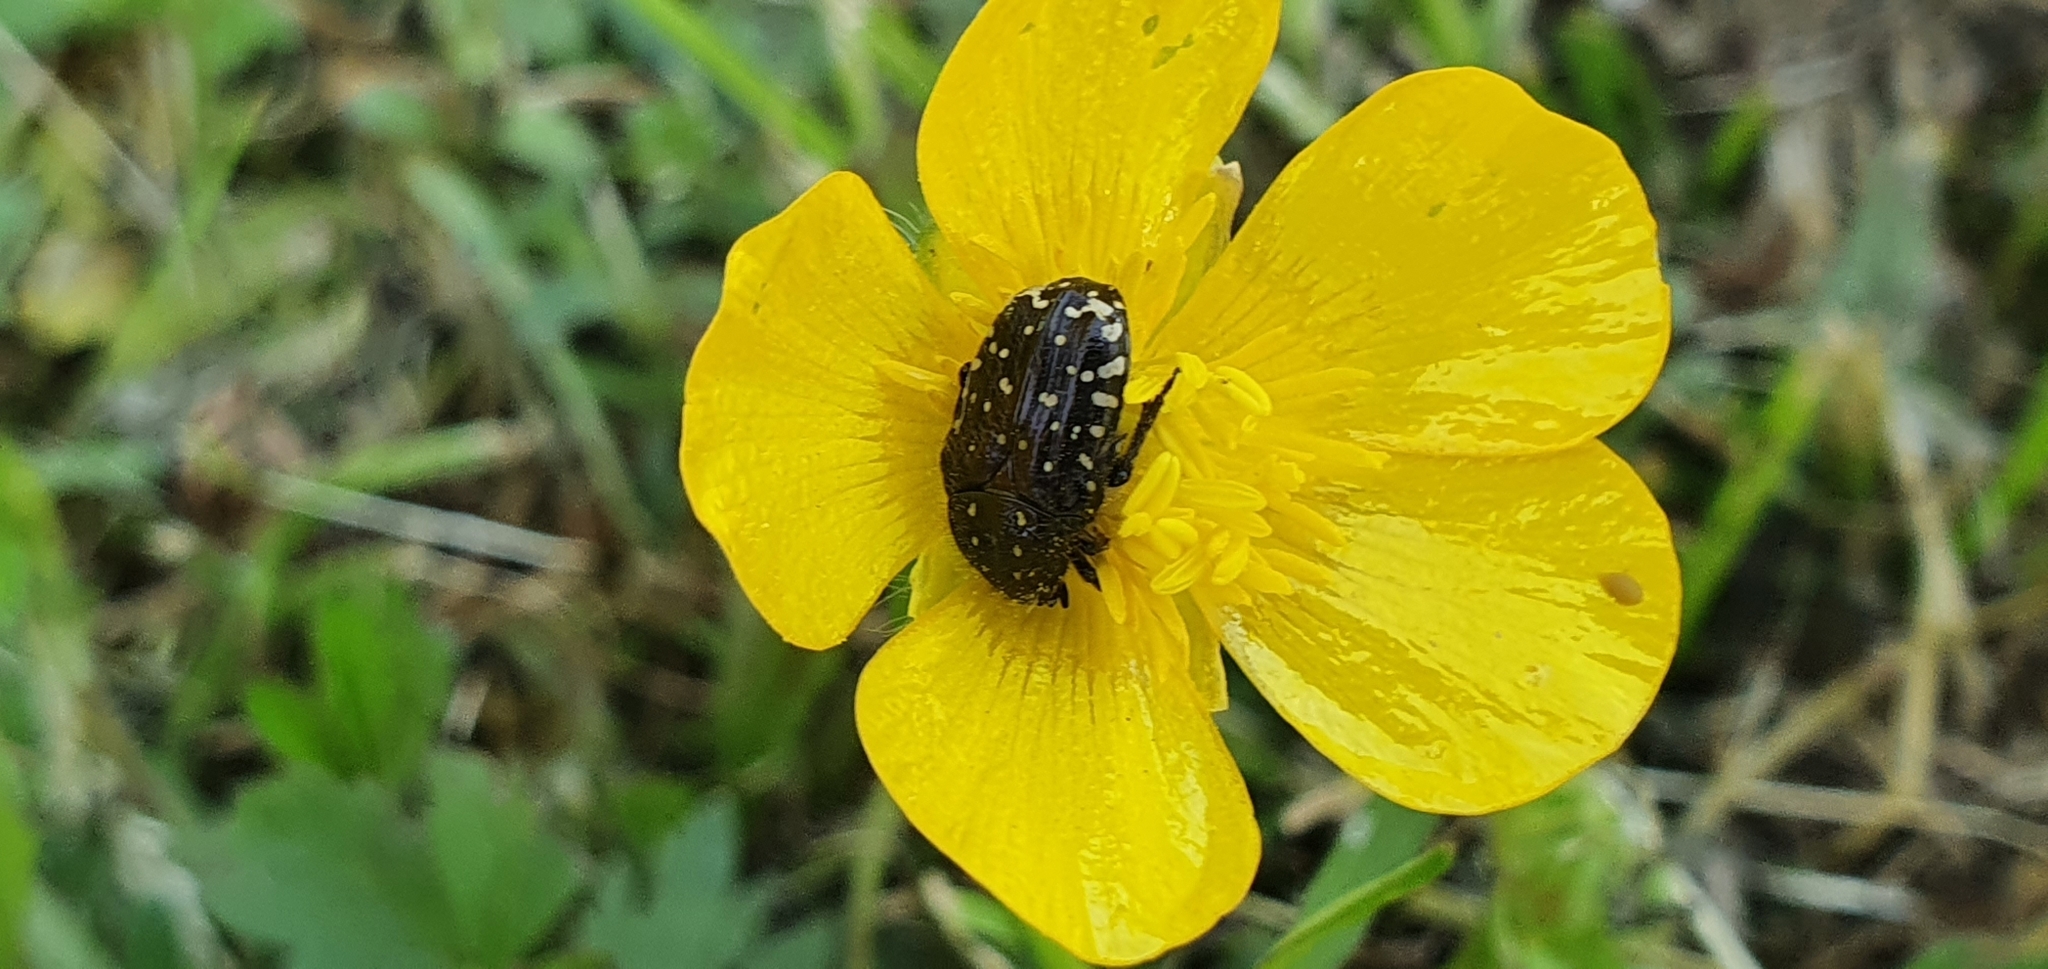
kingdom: Animalia
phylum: Arthropoda
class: Insecta
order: Coleoptera
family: Scarabaeidae
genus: Oxythyrea
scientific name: Oxythyrea funesta
